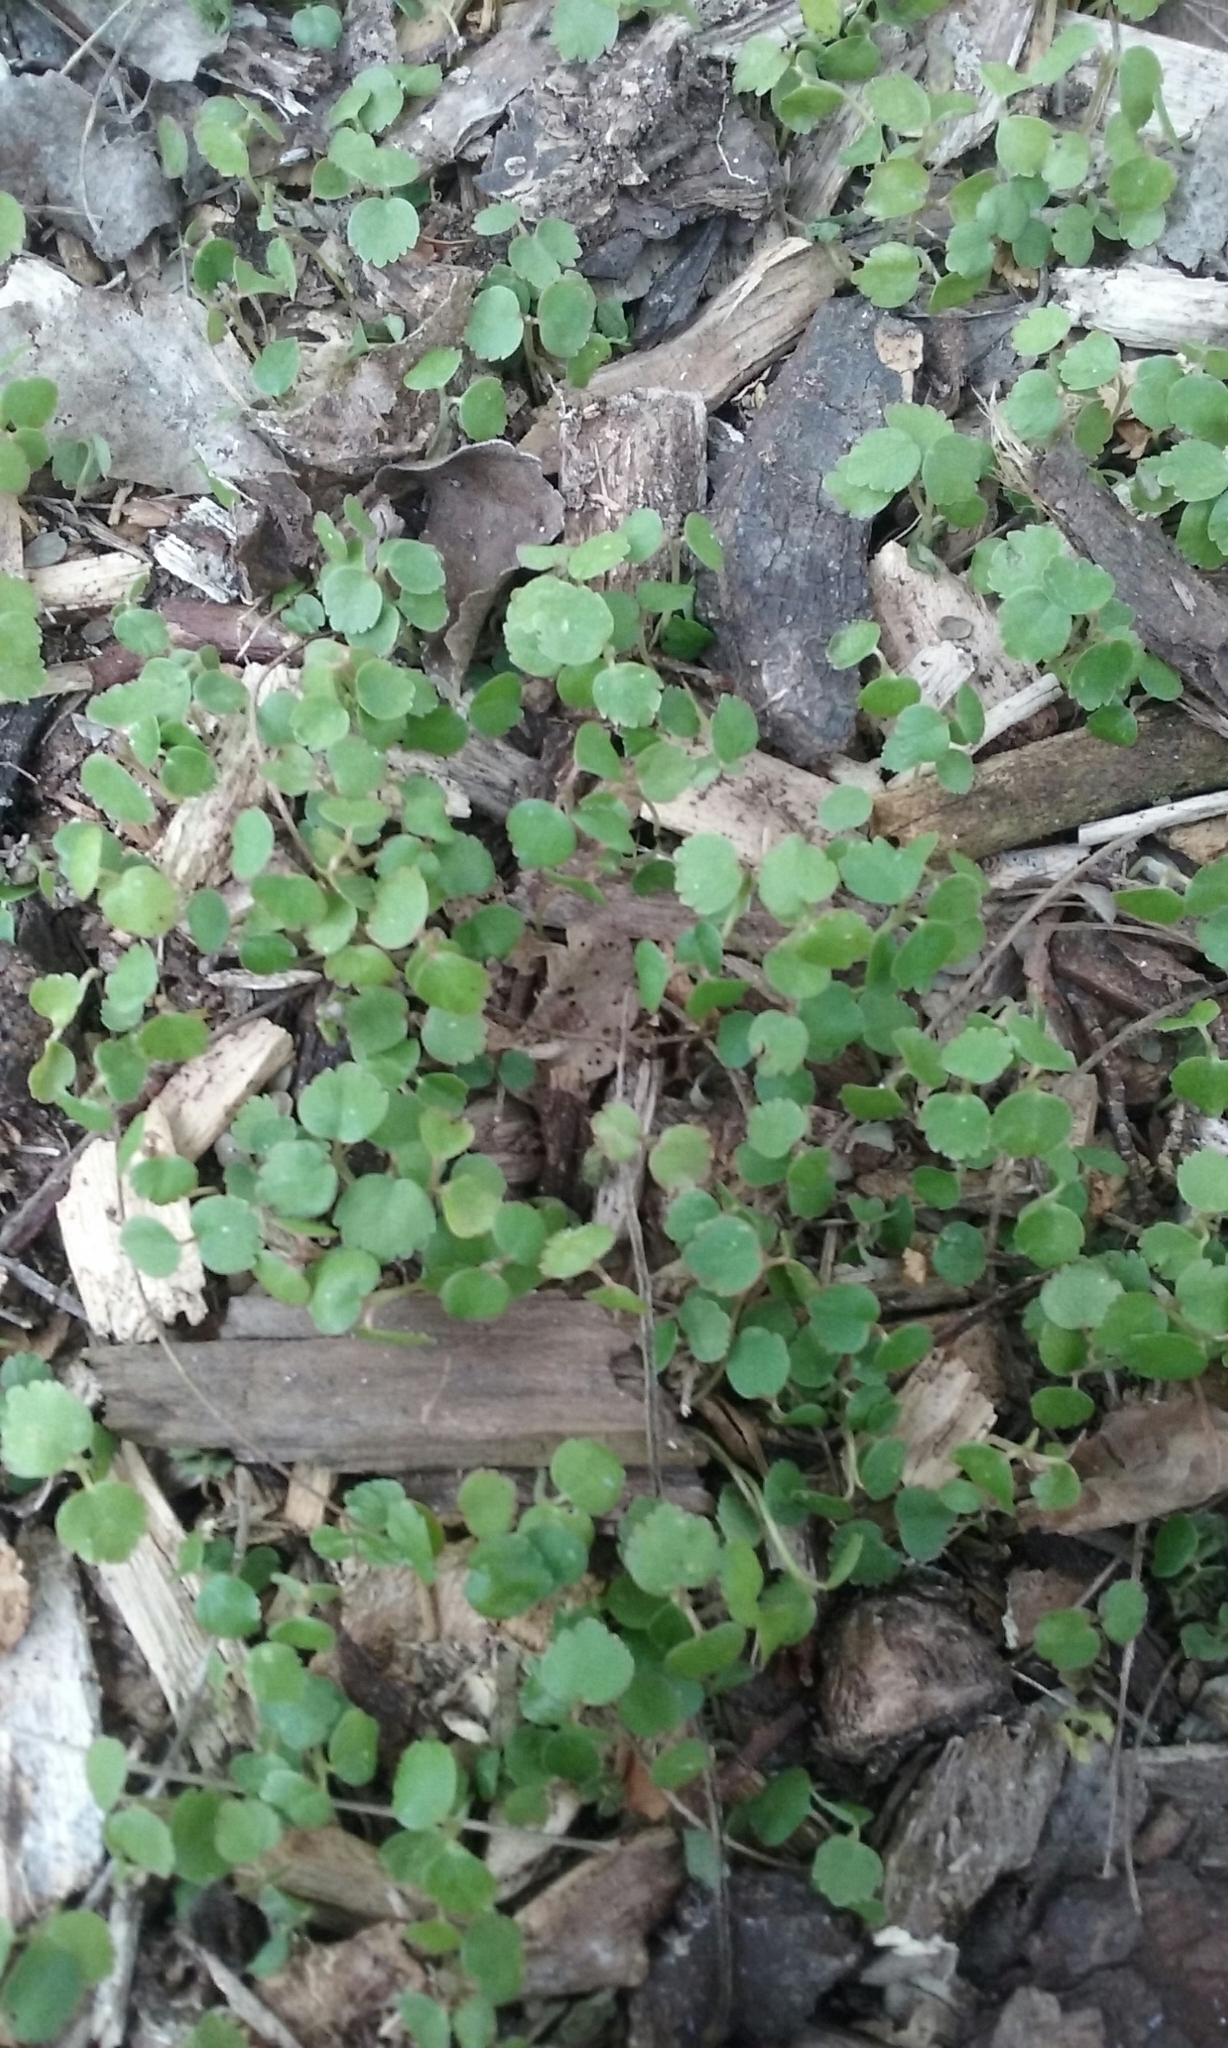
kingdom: Plantae
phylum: Tracheophyta
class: Magnoliopsida
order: Malvales
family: Malvaceae
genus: Plagianthus
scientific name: Plagianthus regius
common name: Manatu
